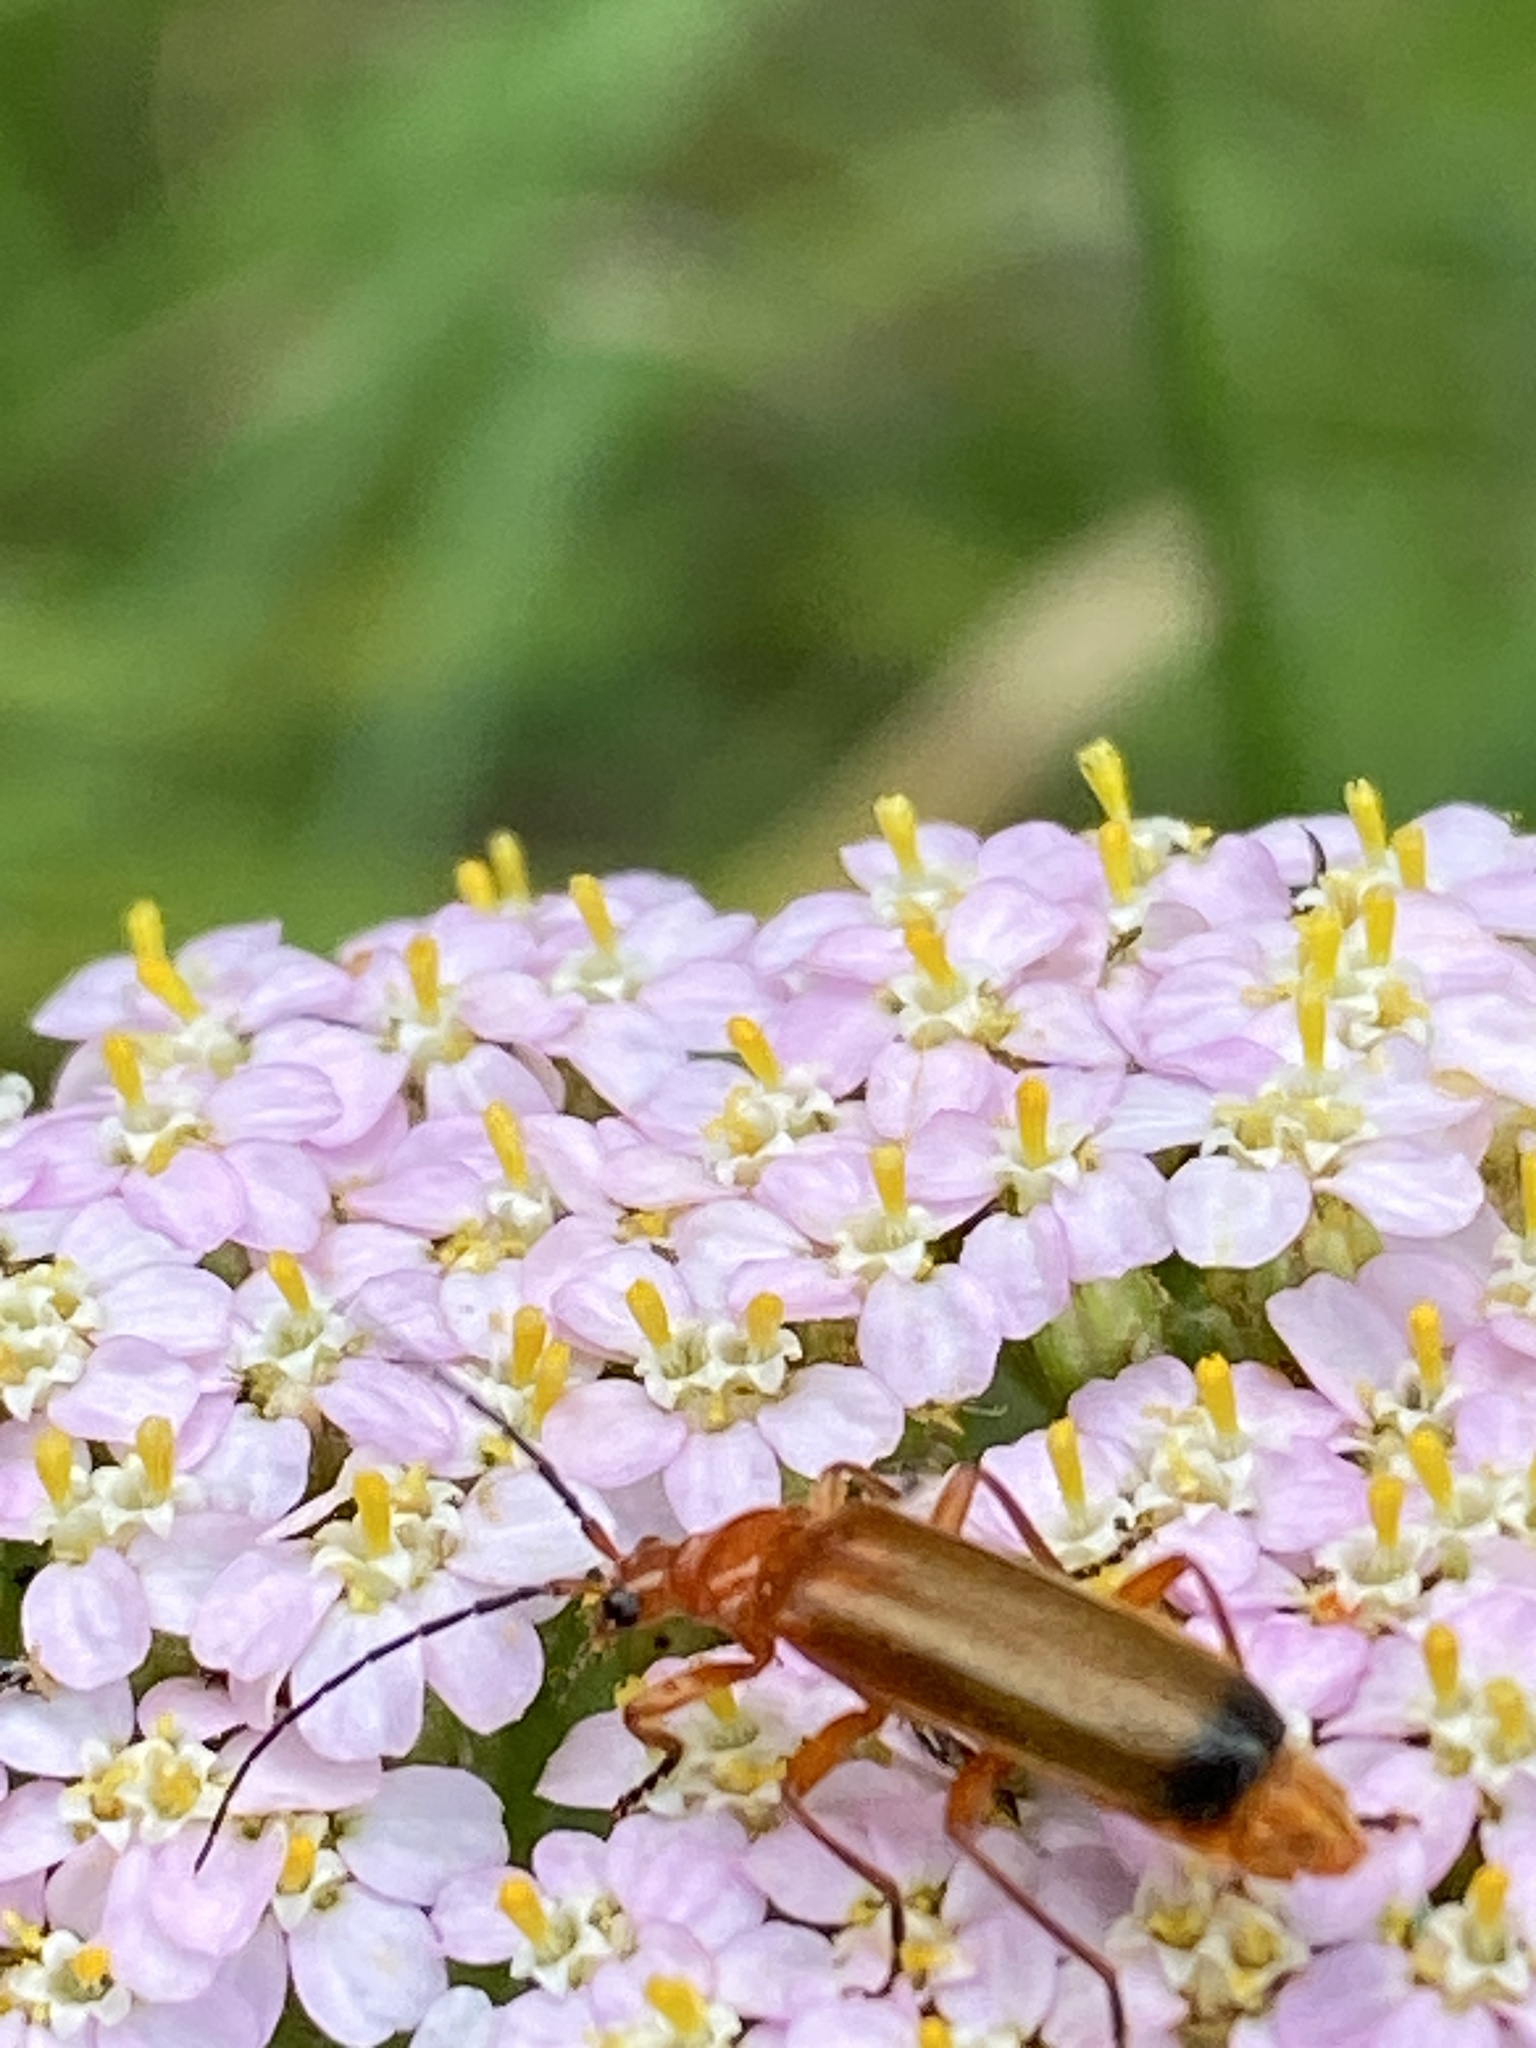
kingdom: Animalia
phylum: Arthropoda
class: Insecta
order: Coleoptera
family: Cantharidae
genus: Rhagonycha
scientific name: Rhagonycha fulva
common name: Common red soldier beetle
